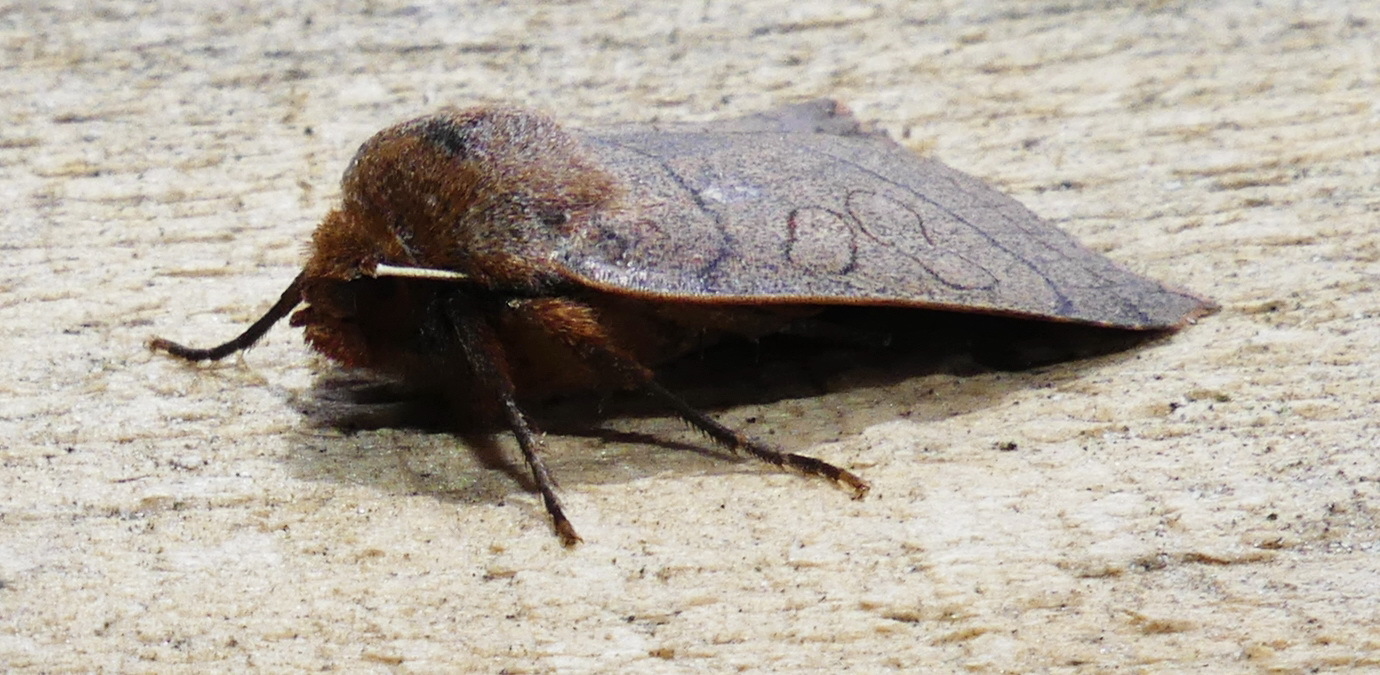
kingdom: Animalia
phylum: Arthropoda
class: Insecta
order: Lepidoptera
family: Noctuidae
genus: Metaxaglaea
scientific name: Metaxaglaea inulta
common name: Unsated sallow
